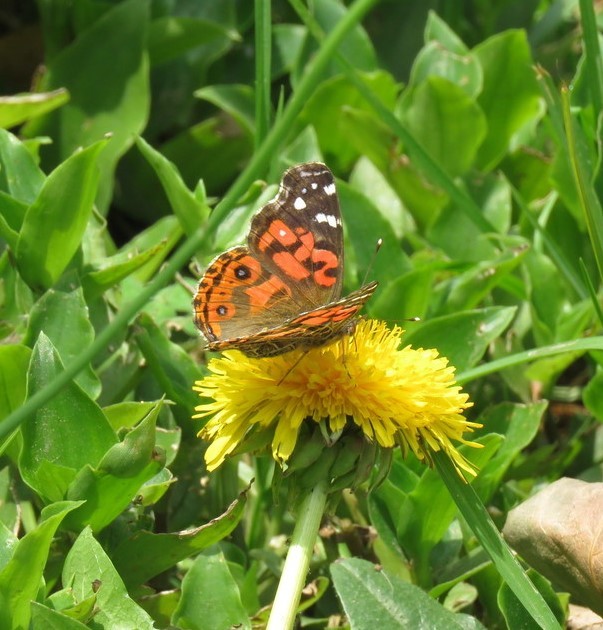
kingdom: Plantae
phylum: Tracheophyta
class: Magnoliopsida
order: Asterales
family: Asteraceae
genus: Taraxacum
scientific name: Taraxacum officinale
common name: Common dandelion
